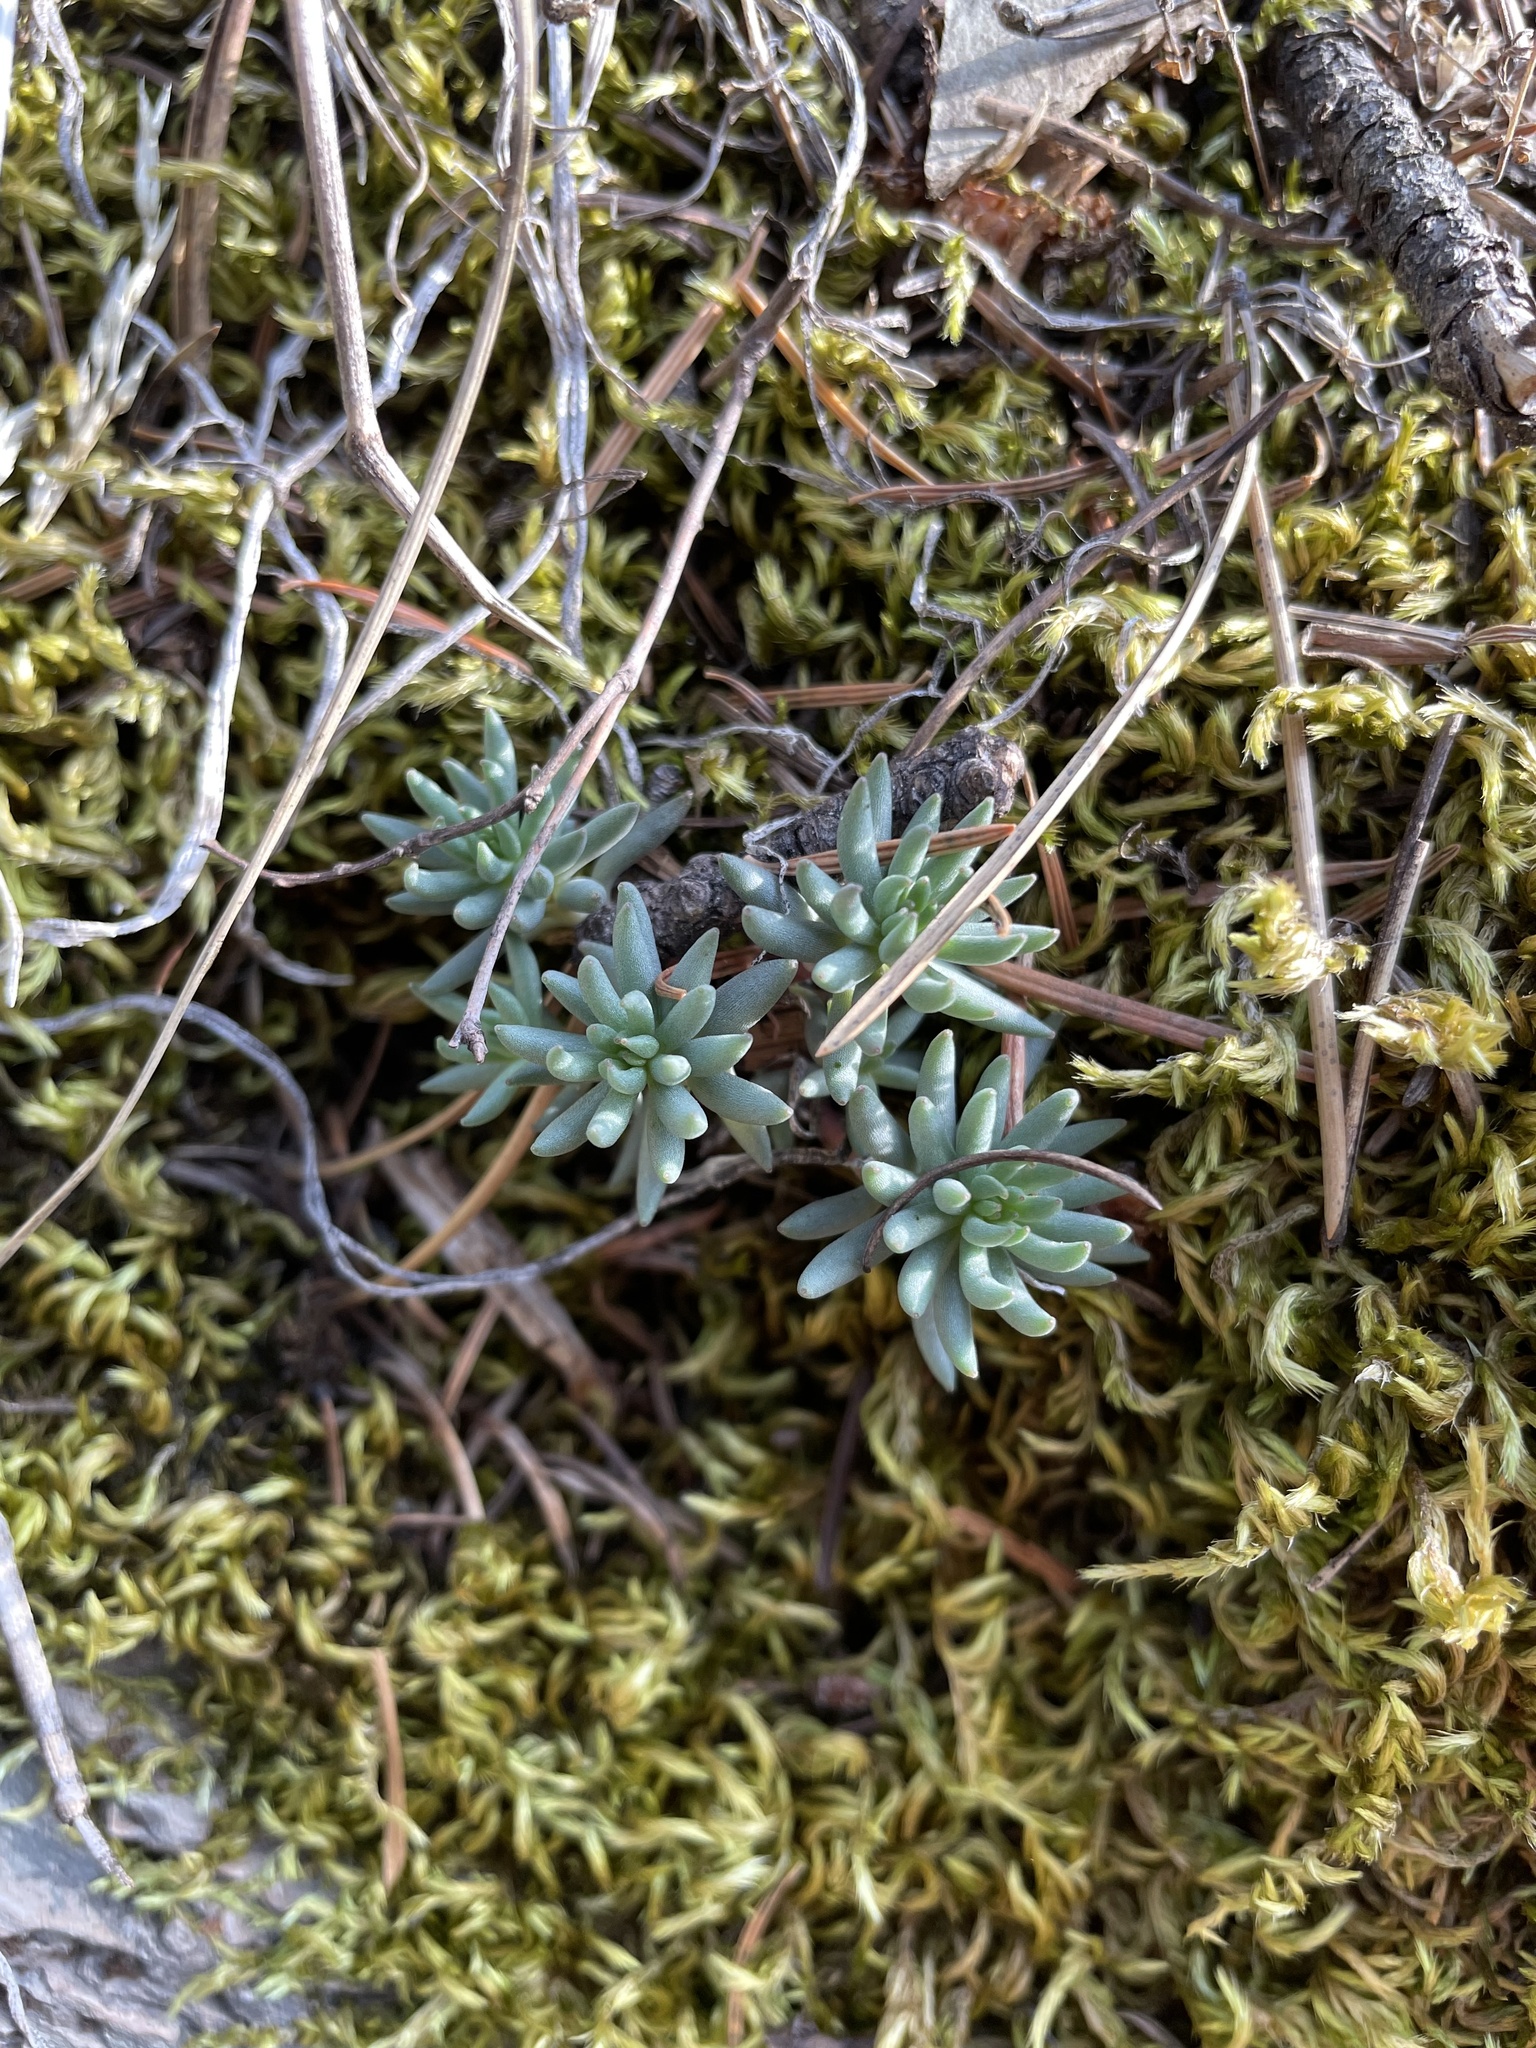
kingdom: Plantae
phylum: Tracheophyta
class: Magnoliopsida
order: Saxifragales
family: Crassulaceae
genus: Sedum
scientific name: Sedum lanceolatum
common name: Common stonecrop
